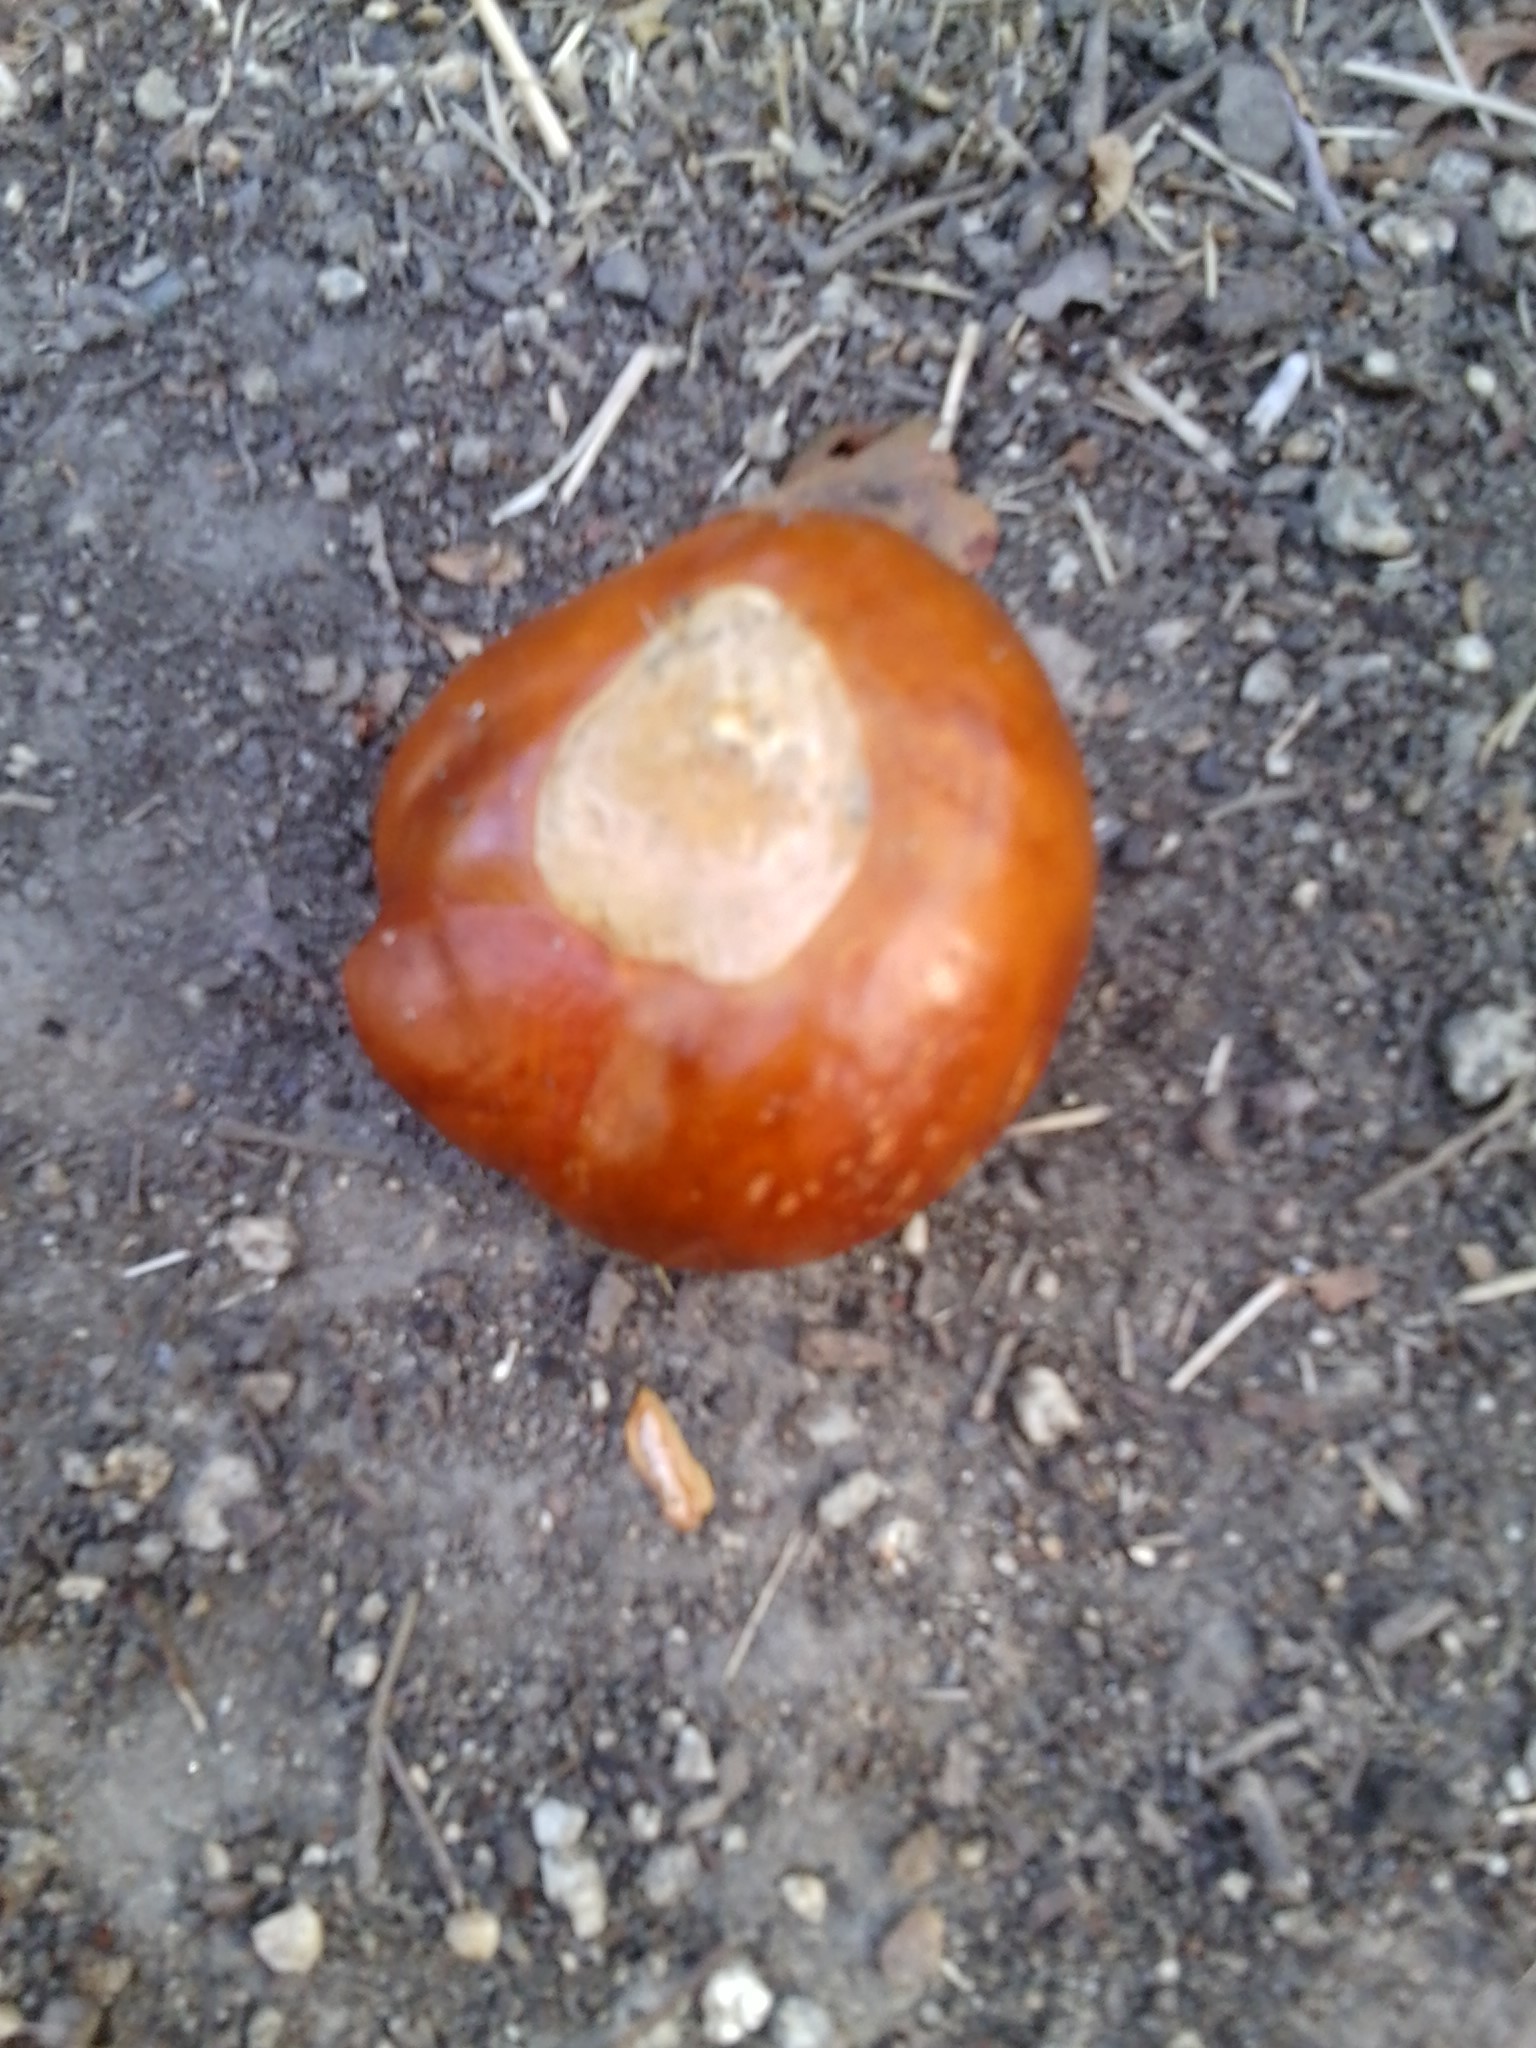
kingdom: Plantae
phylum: Tracheophyta
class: Magnoliopsida
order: Sapindales
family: Sapindaceae
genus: Aesculus
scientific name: Aesculus californica
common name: California buckeye
